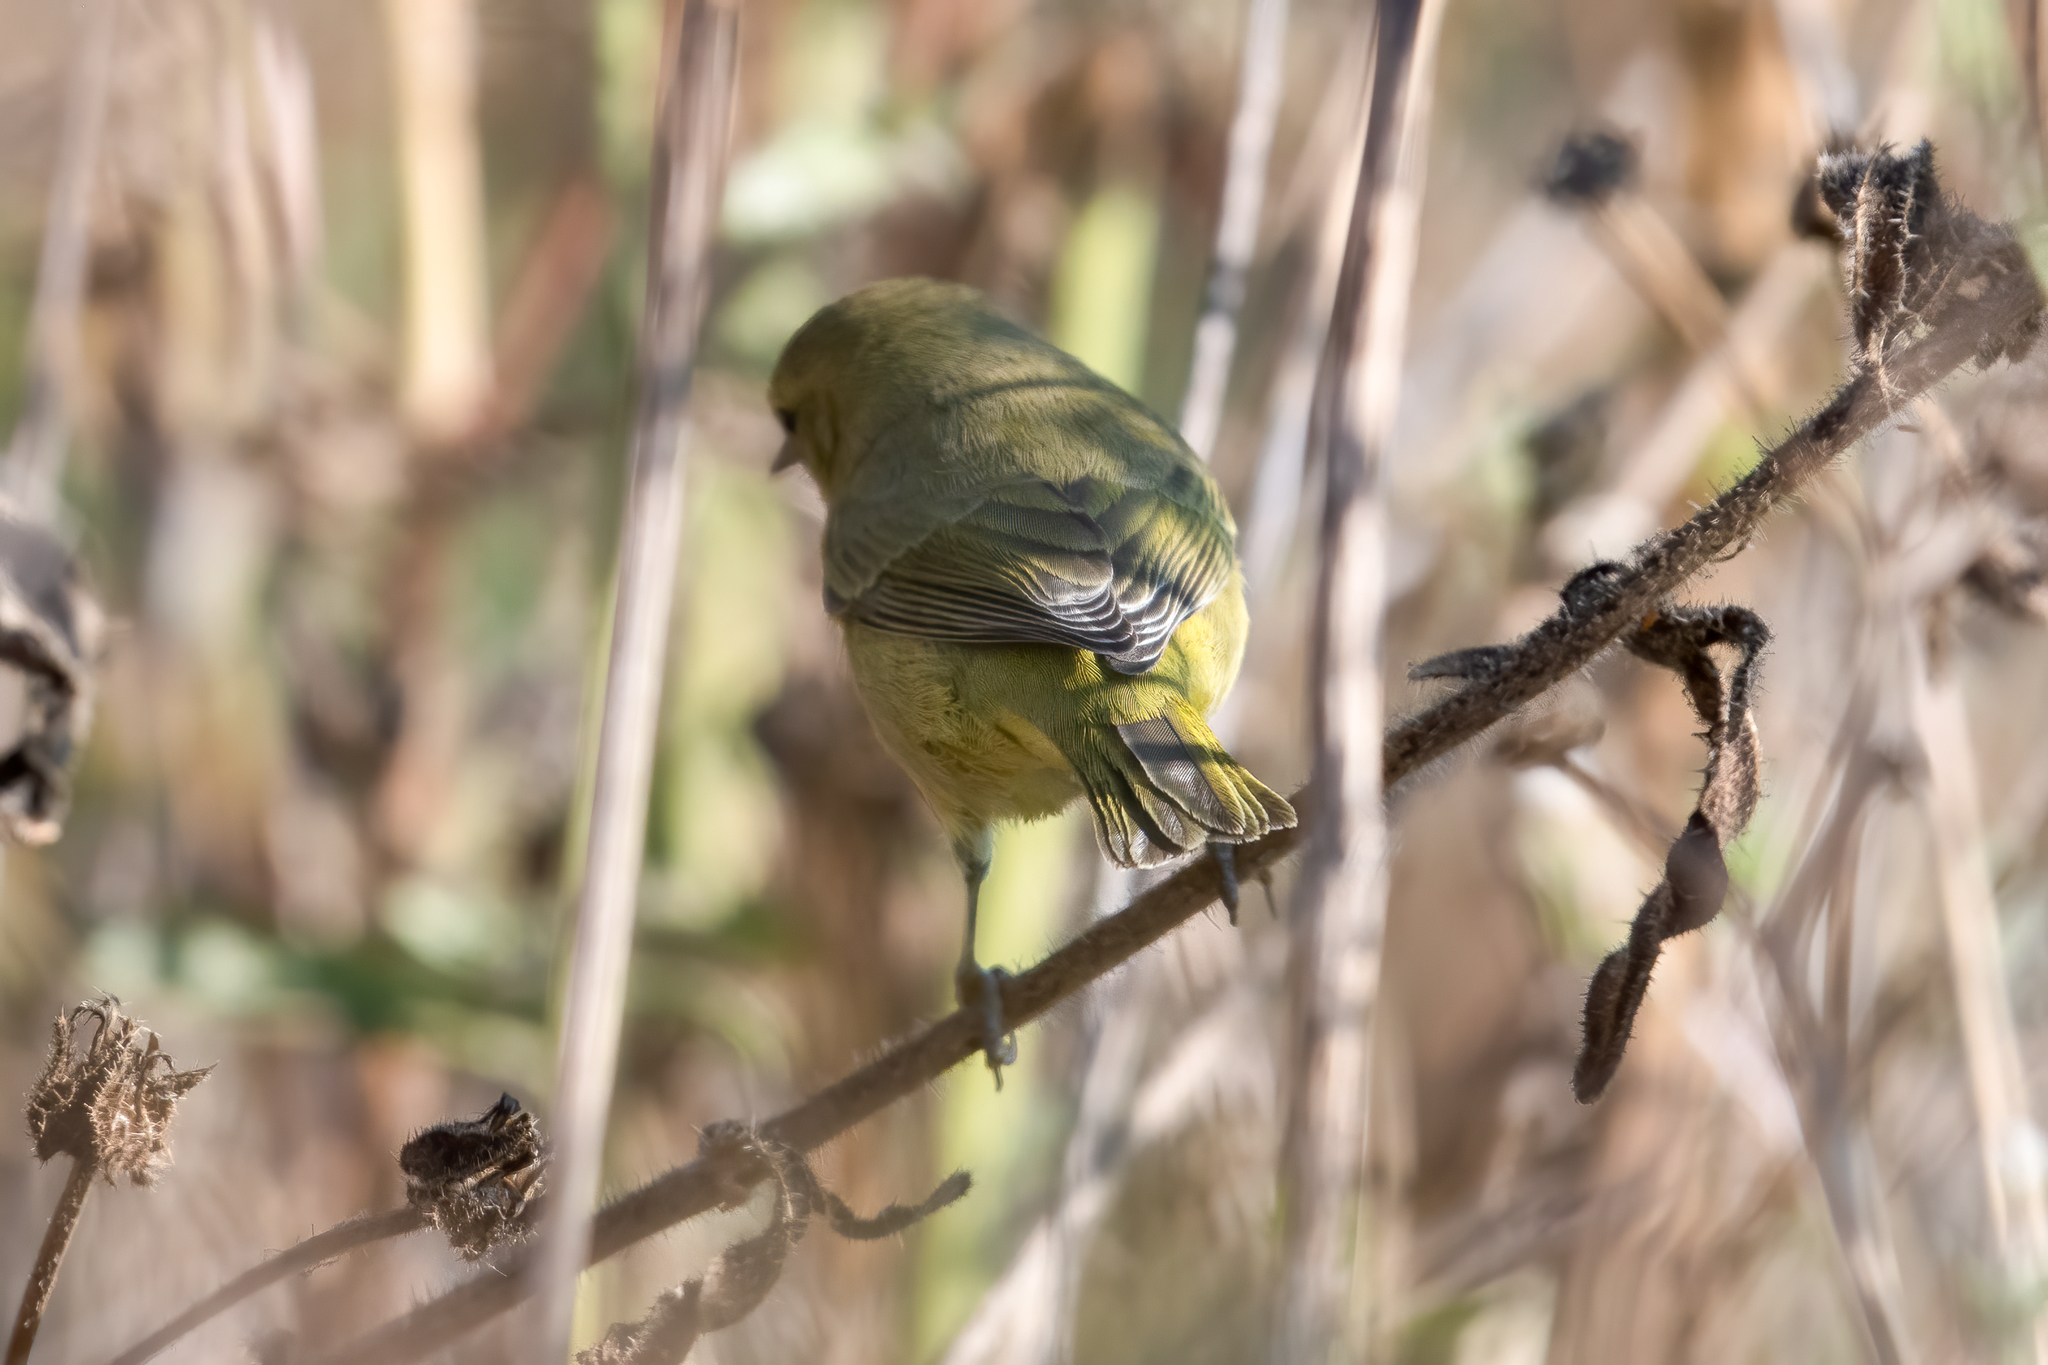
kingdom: Animalia
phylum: Chordata
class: Aves
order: Passeriformes
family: Parulidae
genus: Leiothlypis
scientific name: Leiothlypis celata
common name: Orange-crowned warbler
